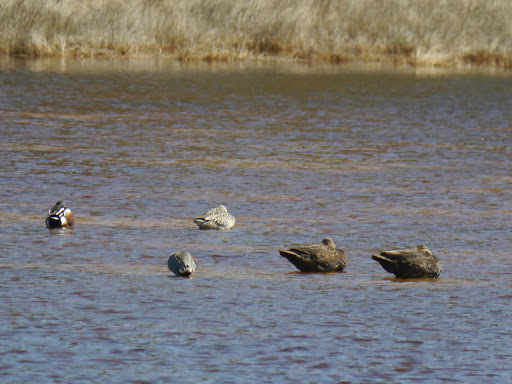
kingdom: Animalia
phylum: Chordata
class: Aves
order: Anseriformes
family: Anatidae
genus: Anas
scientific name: Anas rubripes
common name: American black duck
